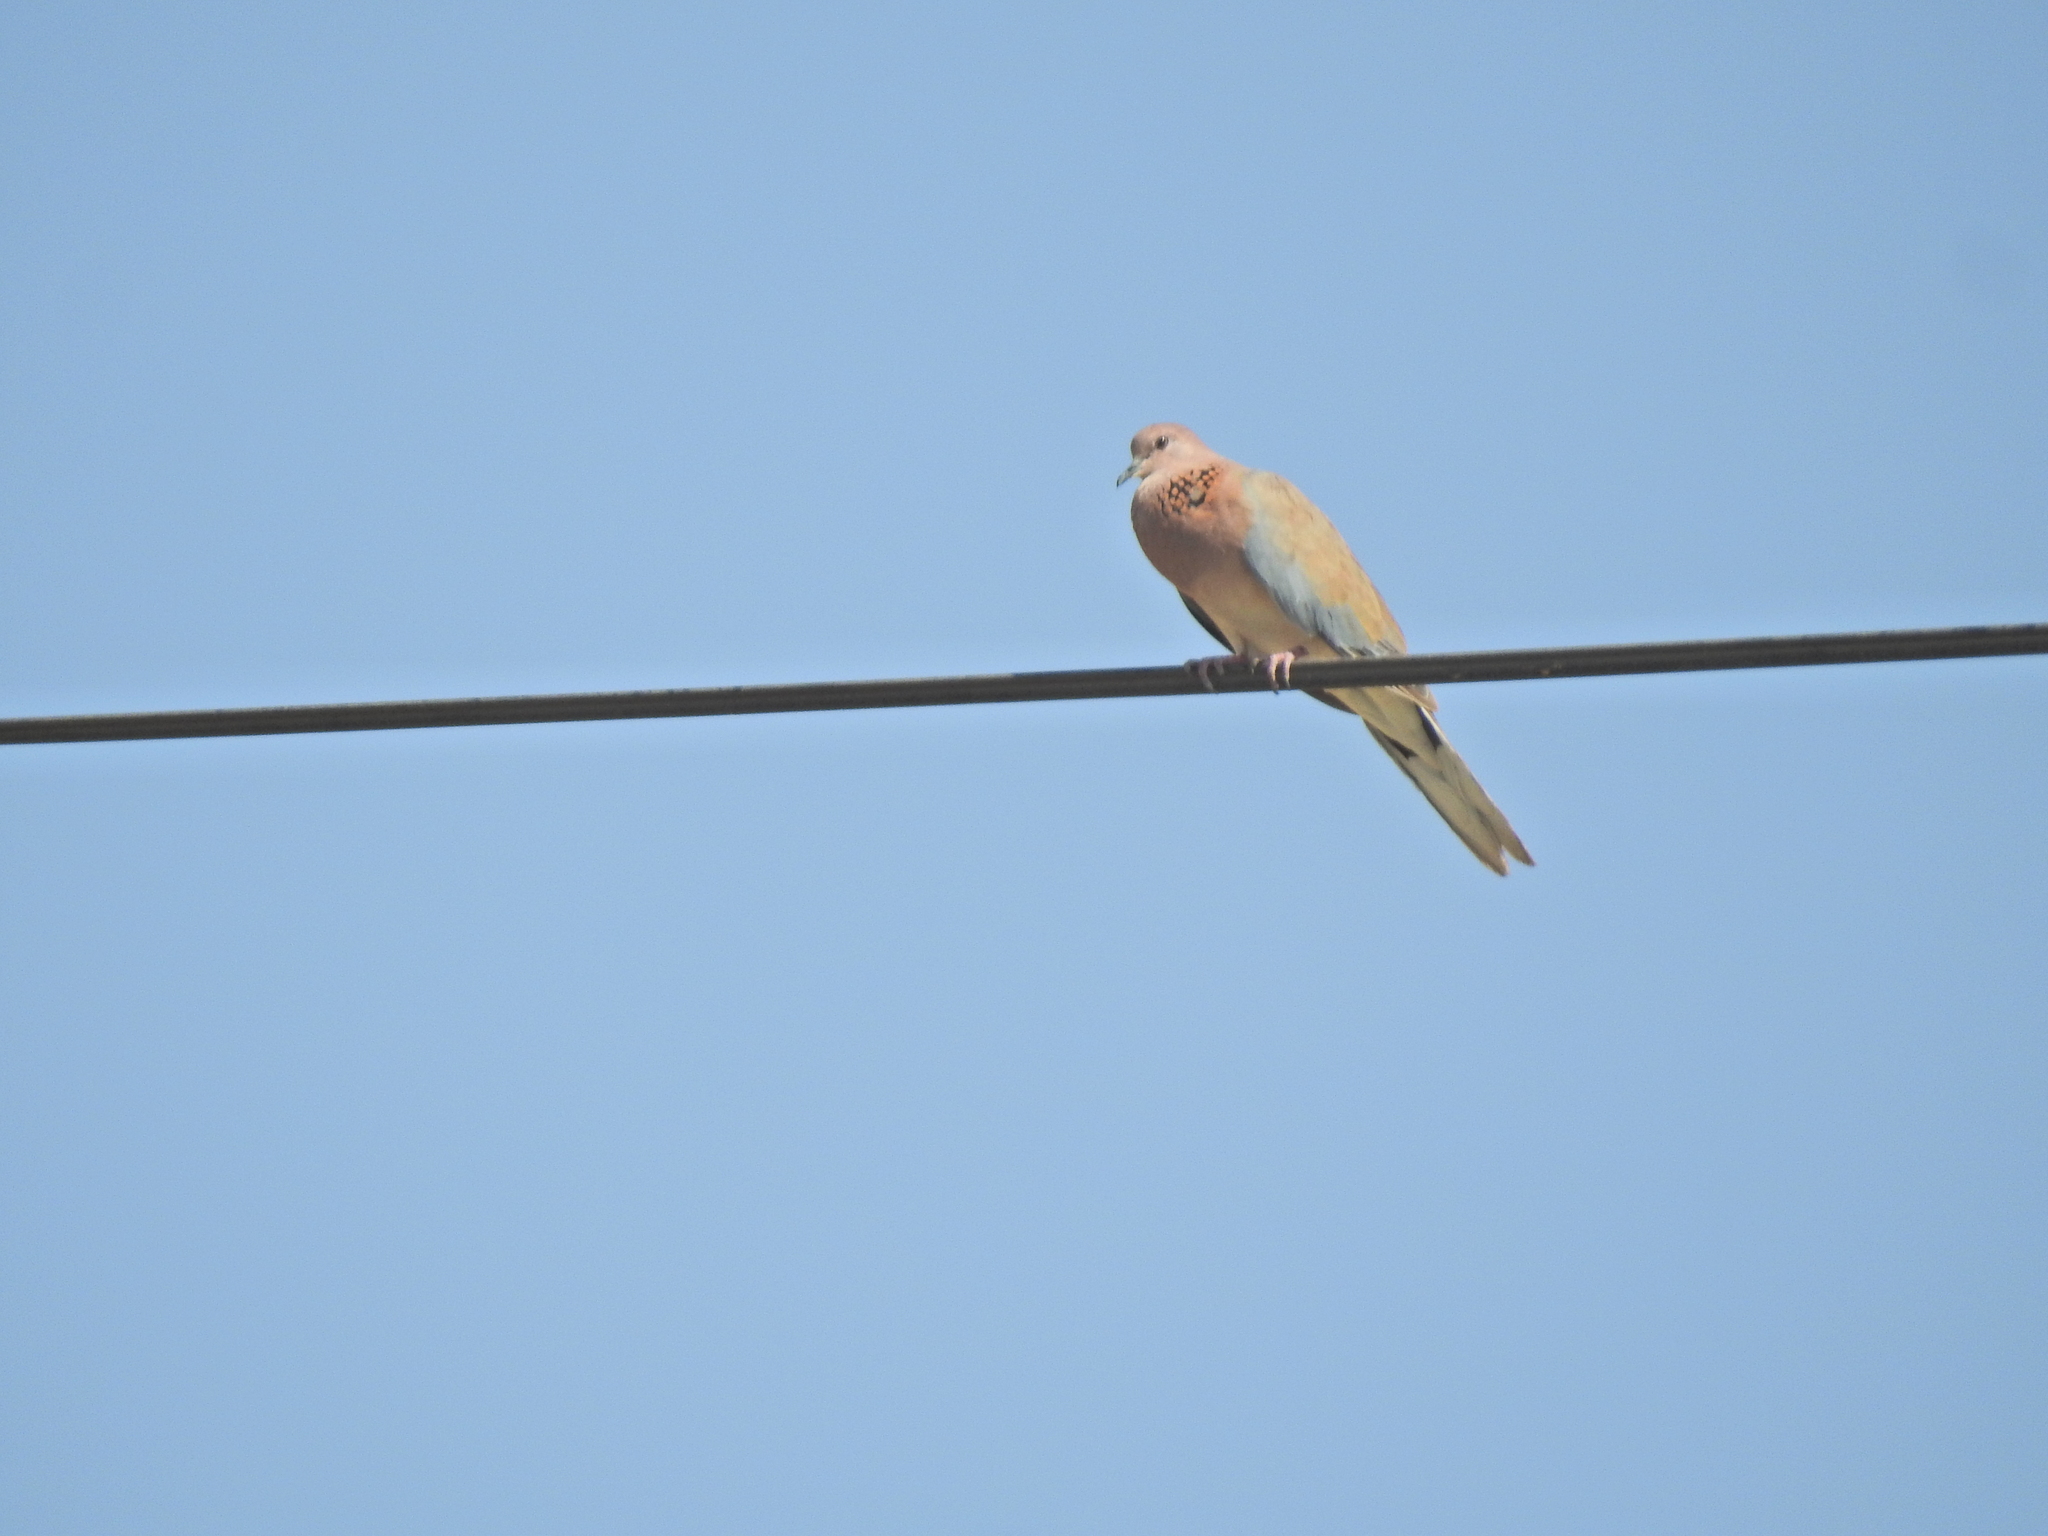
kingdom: Animalia
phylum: Chordata
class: Aves
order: Columbiformes
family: Columbidae
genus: Spilopelia
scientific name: Spilopelia senegalensis
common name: Laughing dove
